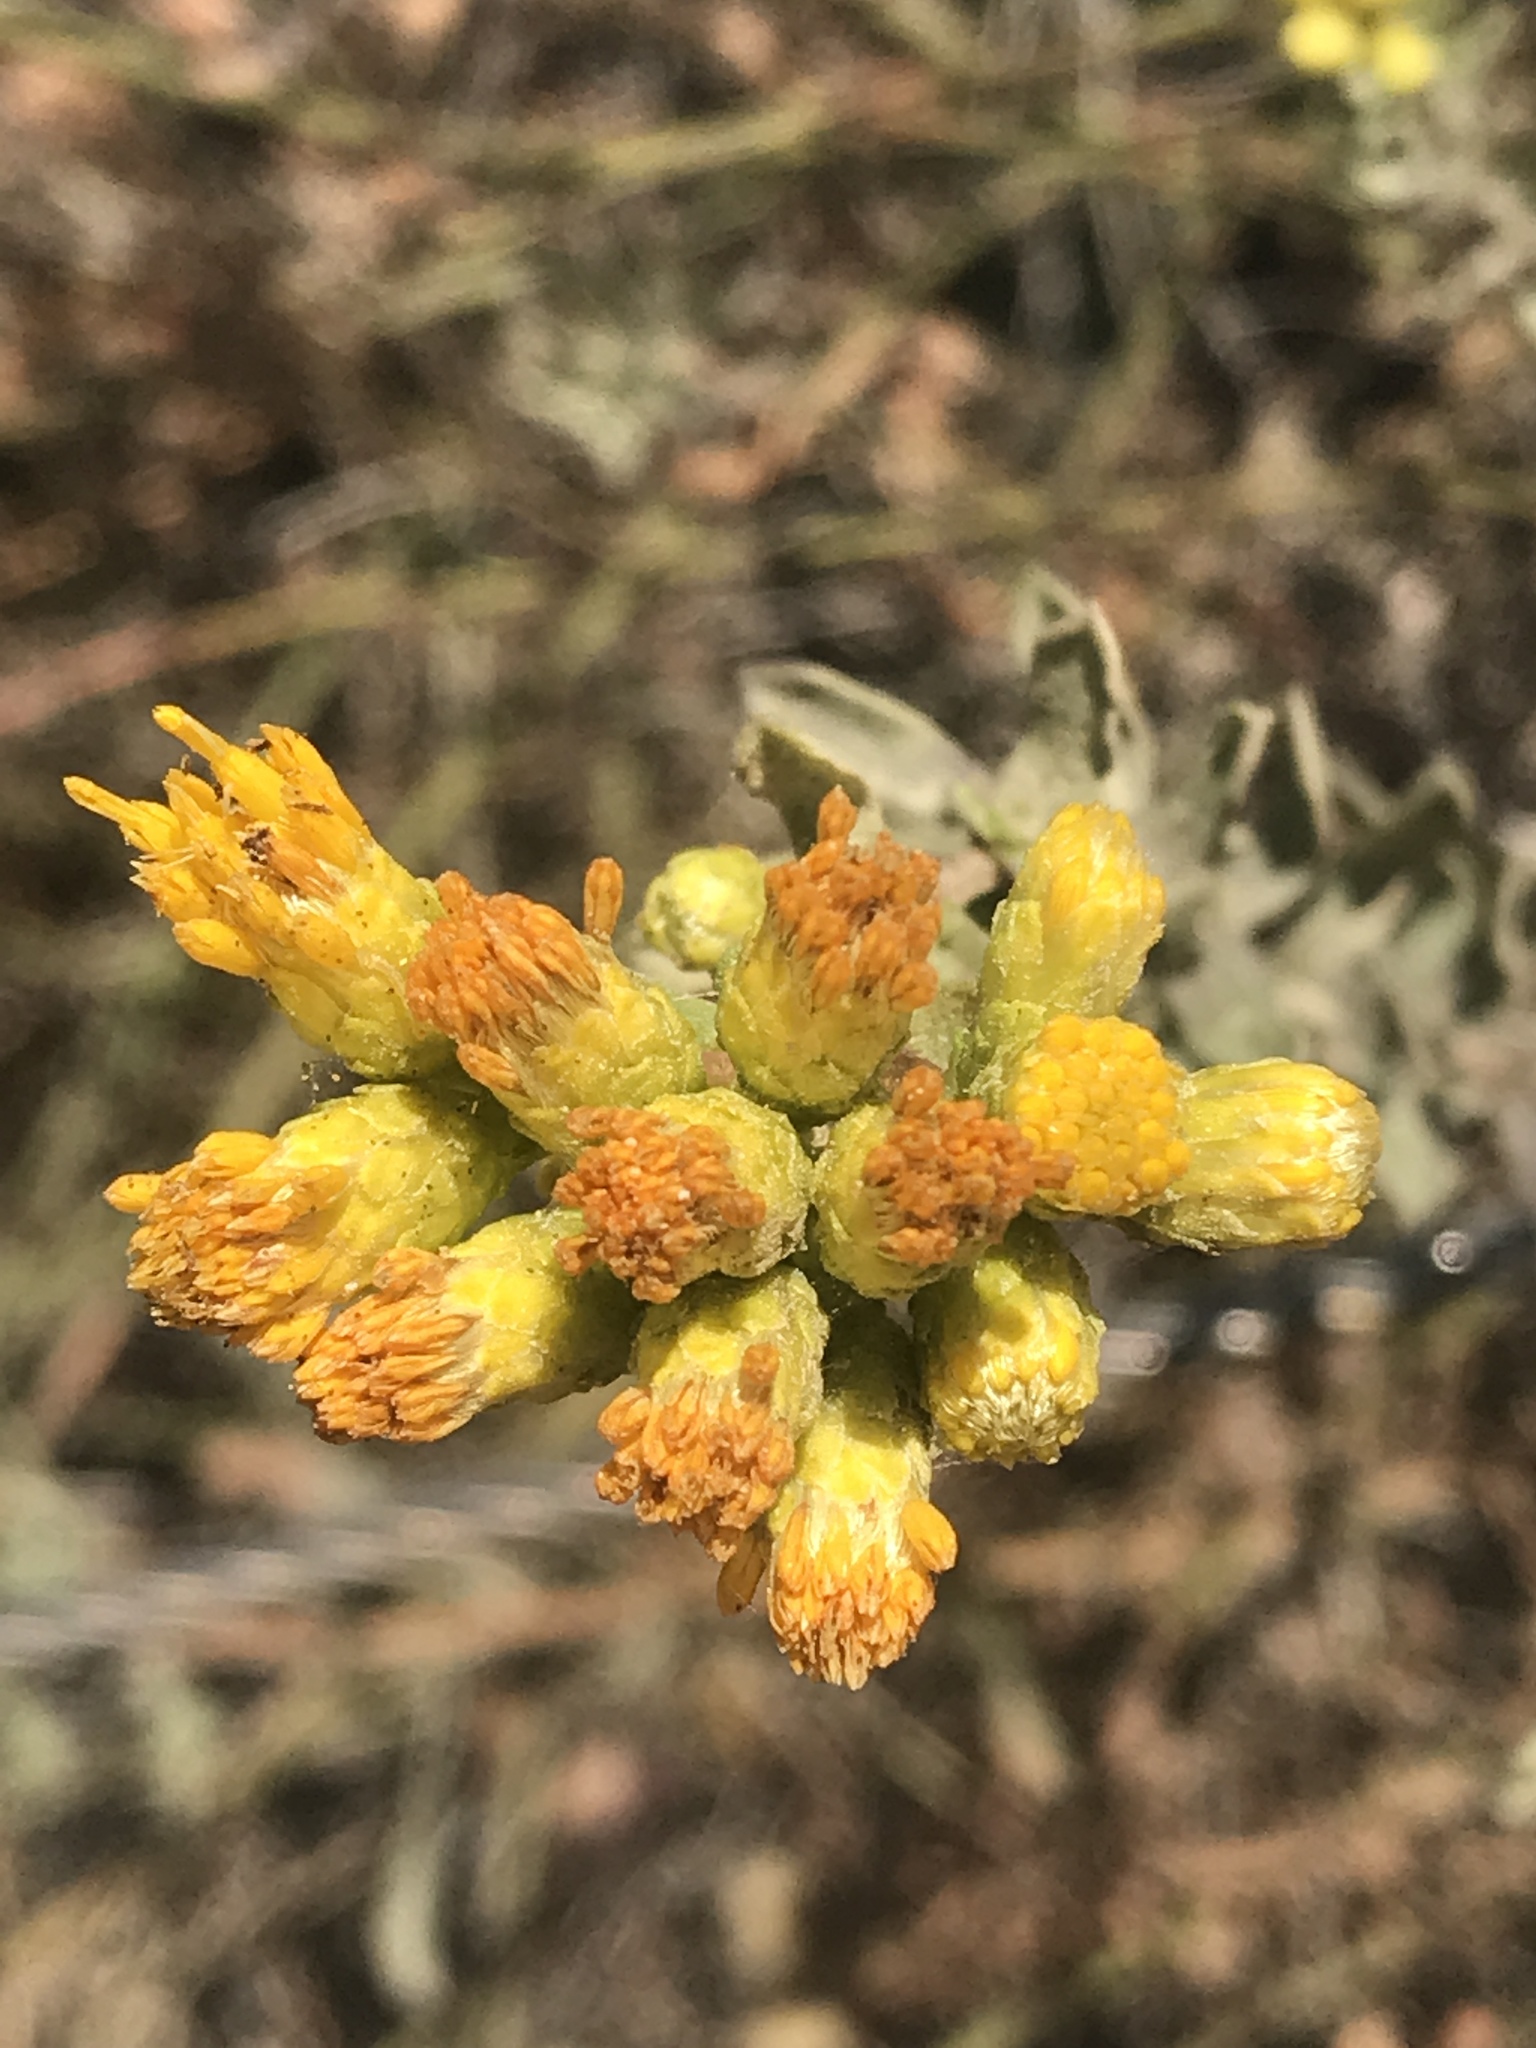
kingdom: Plantae
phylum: Tracheophyta
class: Magnoliopsida
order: Asterales
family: Asteraceae
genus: Isocoma
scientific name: Isocoma menziesii
